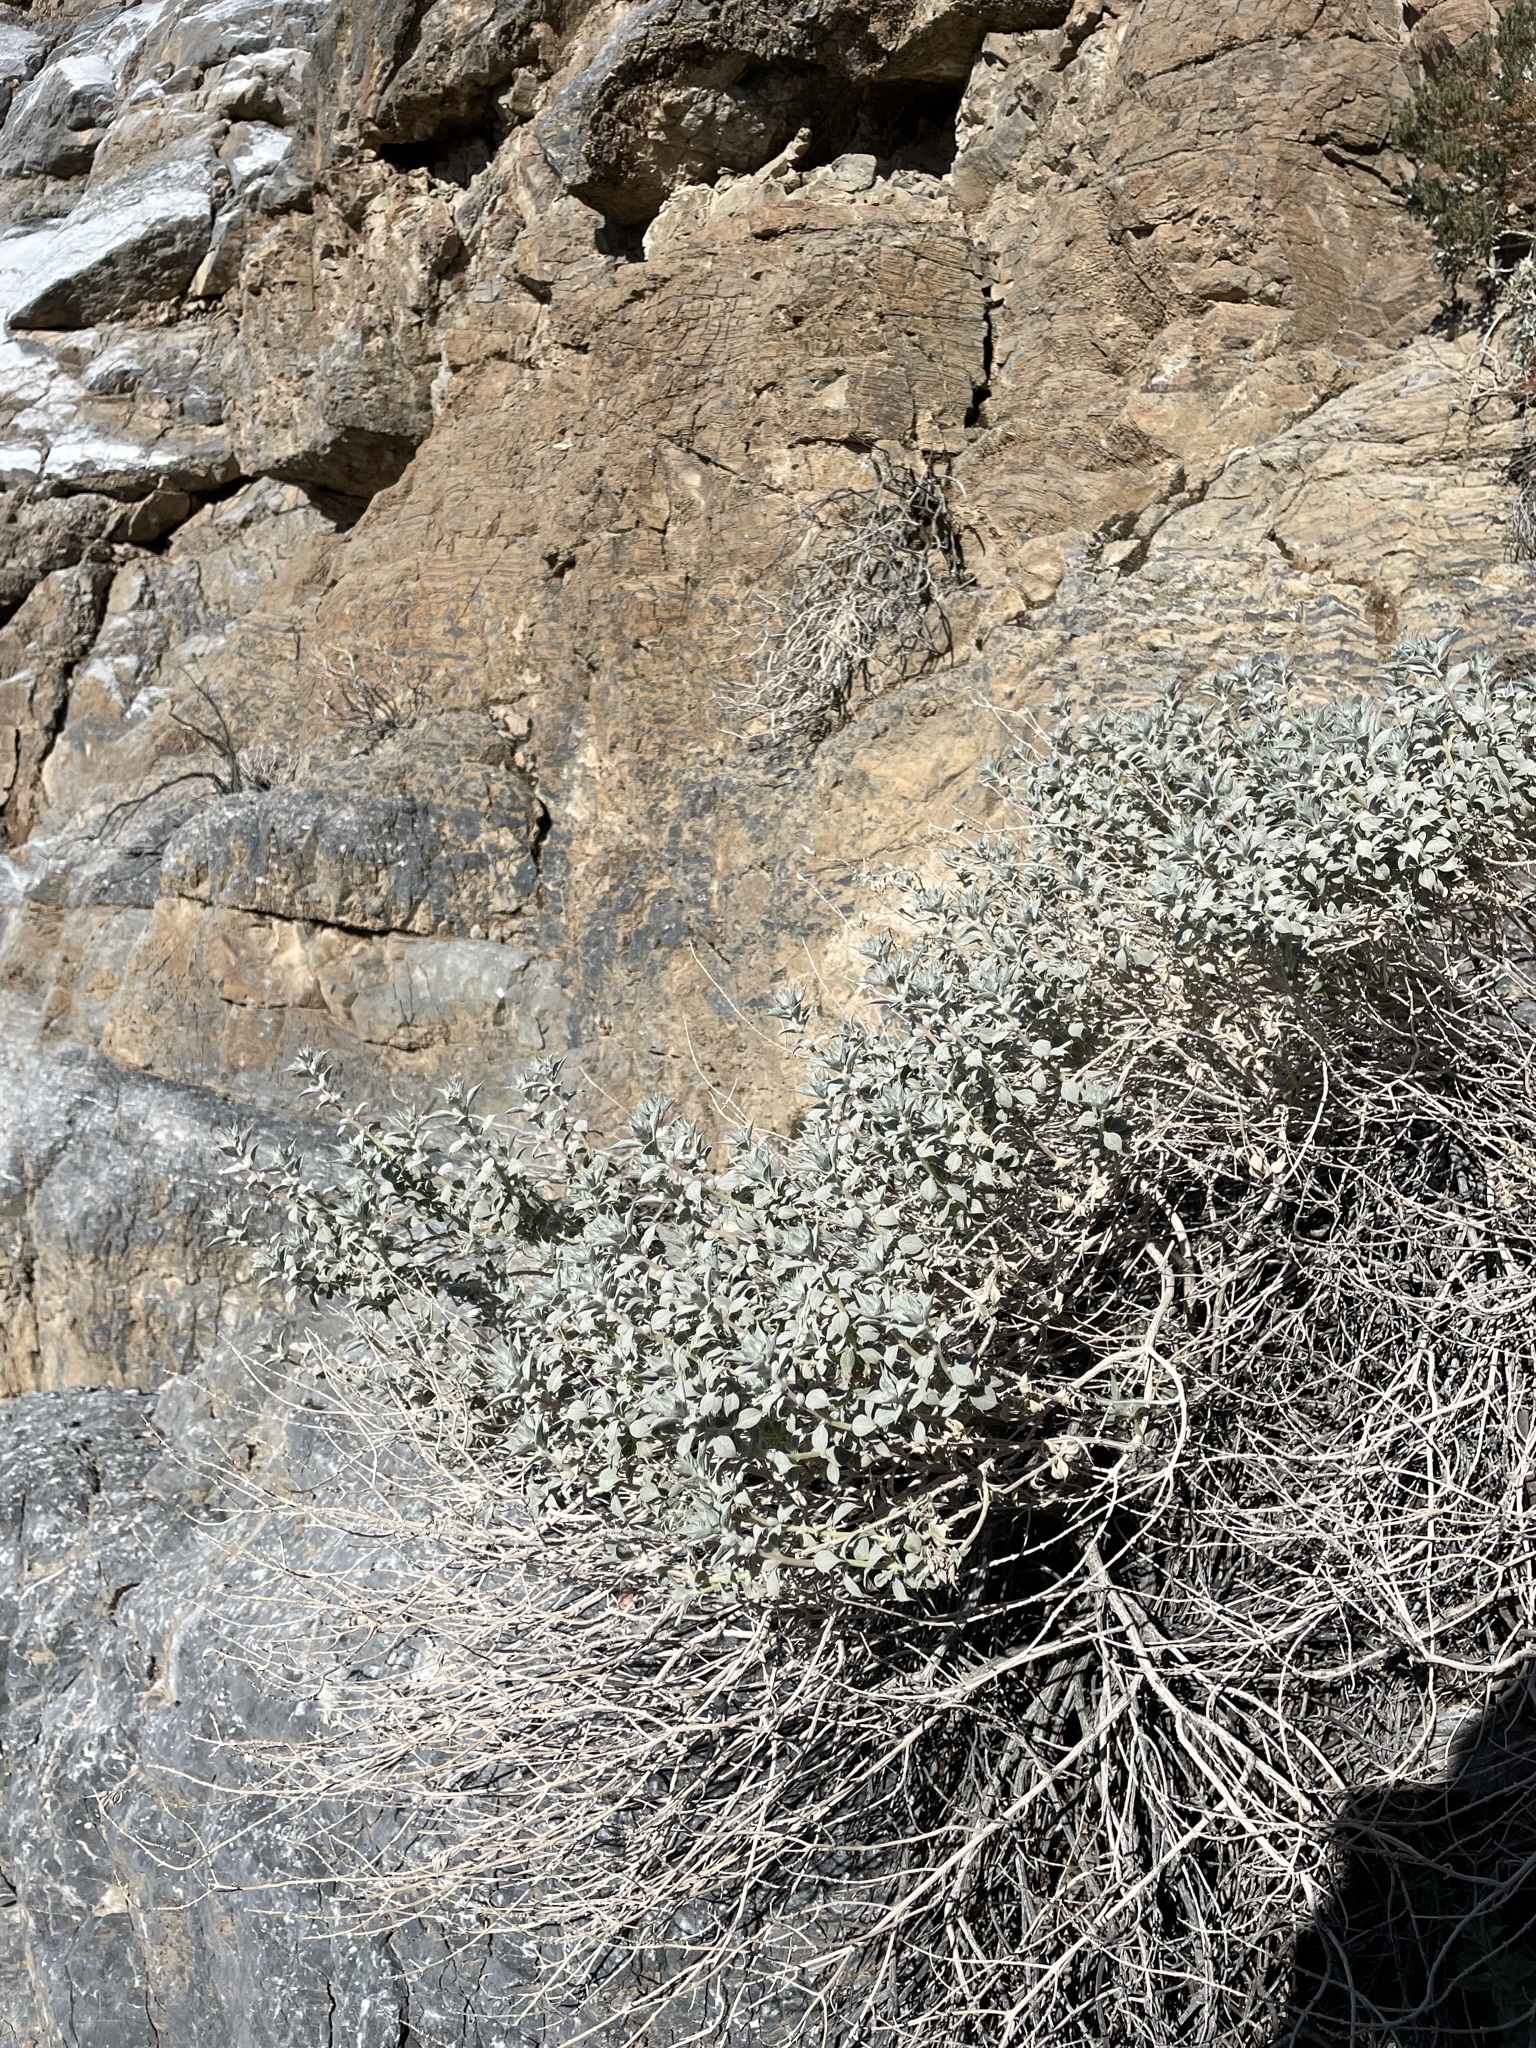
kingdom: Plantae
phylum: Tracheophyta
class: Magnoliopsida
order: Lamiales
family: Lamiaceae
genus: Salvia
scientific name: Salvia funerea
